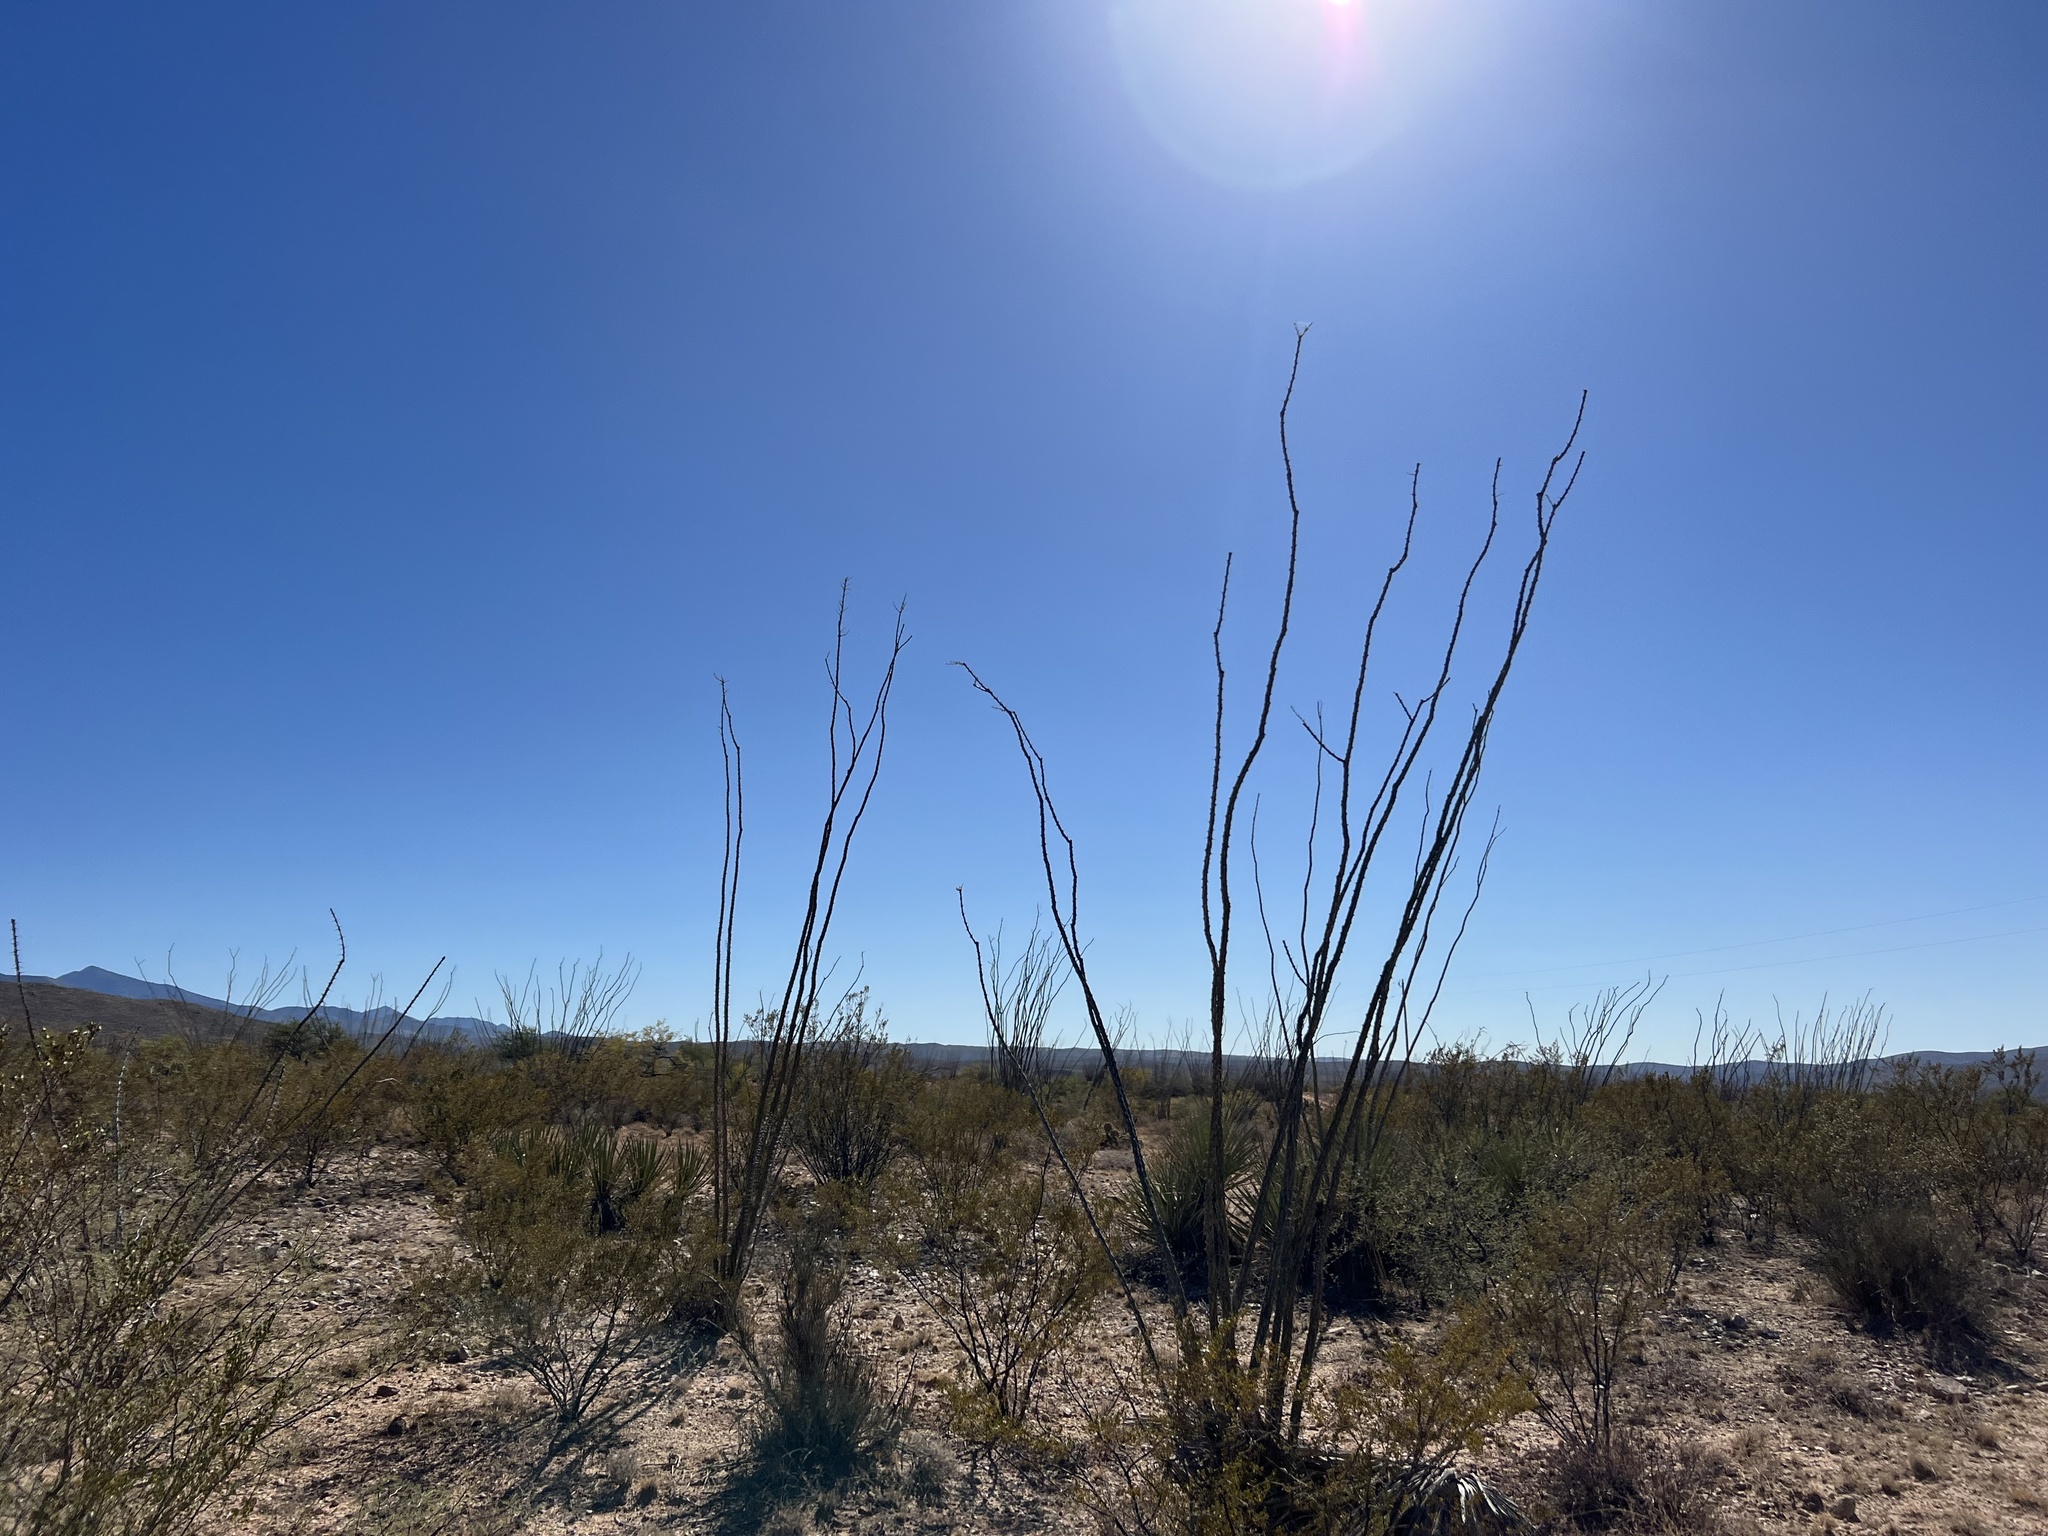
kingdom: Plantae
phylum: Tracheophyta
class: Magnoliopsida
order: Ericales
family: Fouquieriaceae
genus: Fouquieria
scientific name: Fouquieria splendens
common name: Vine-cactus
